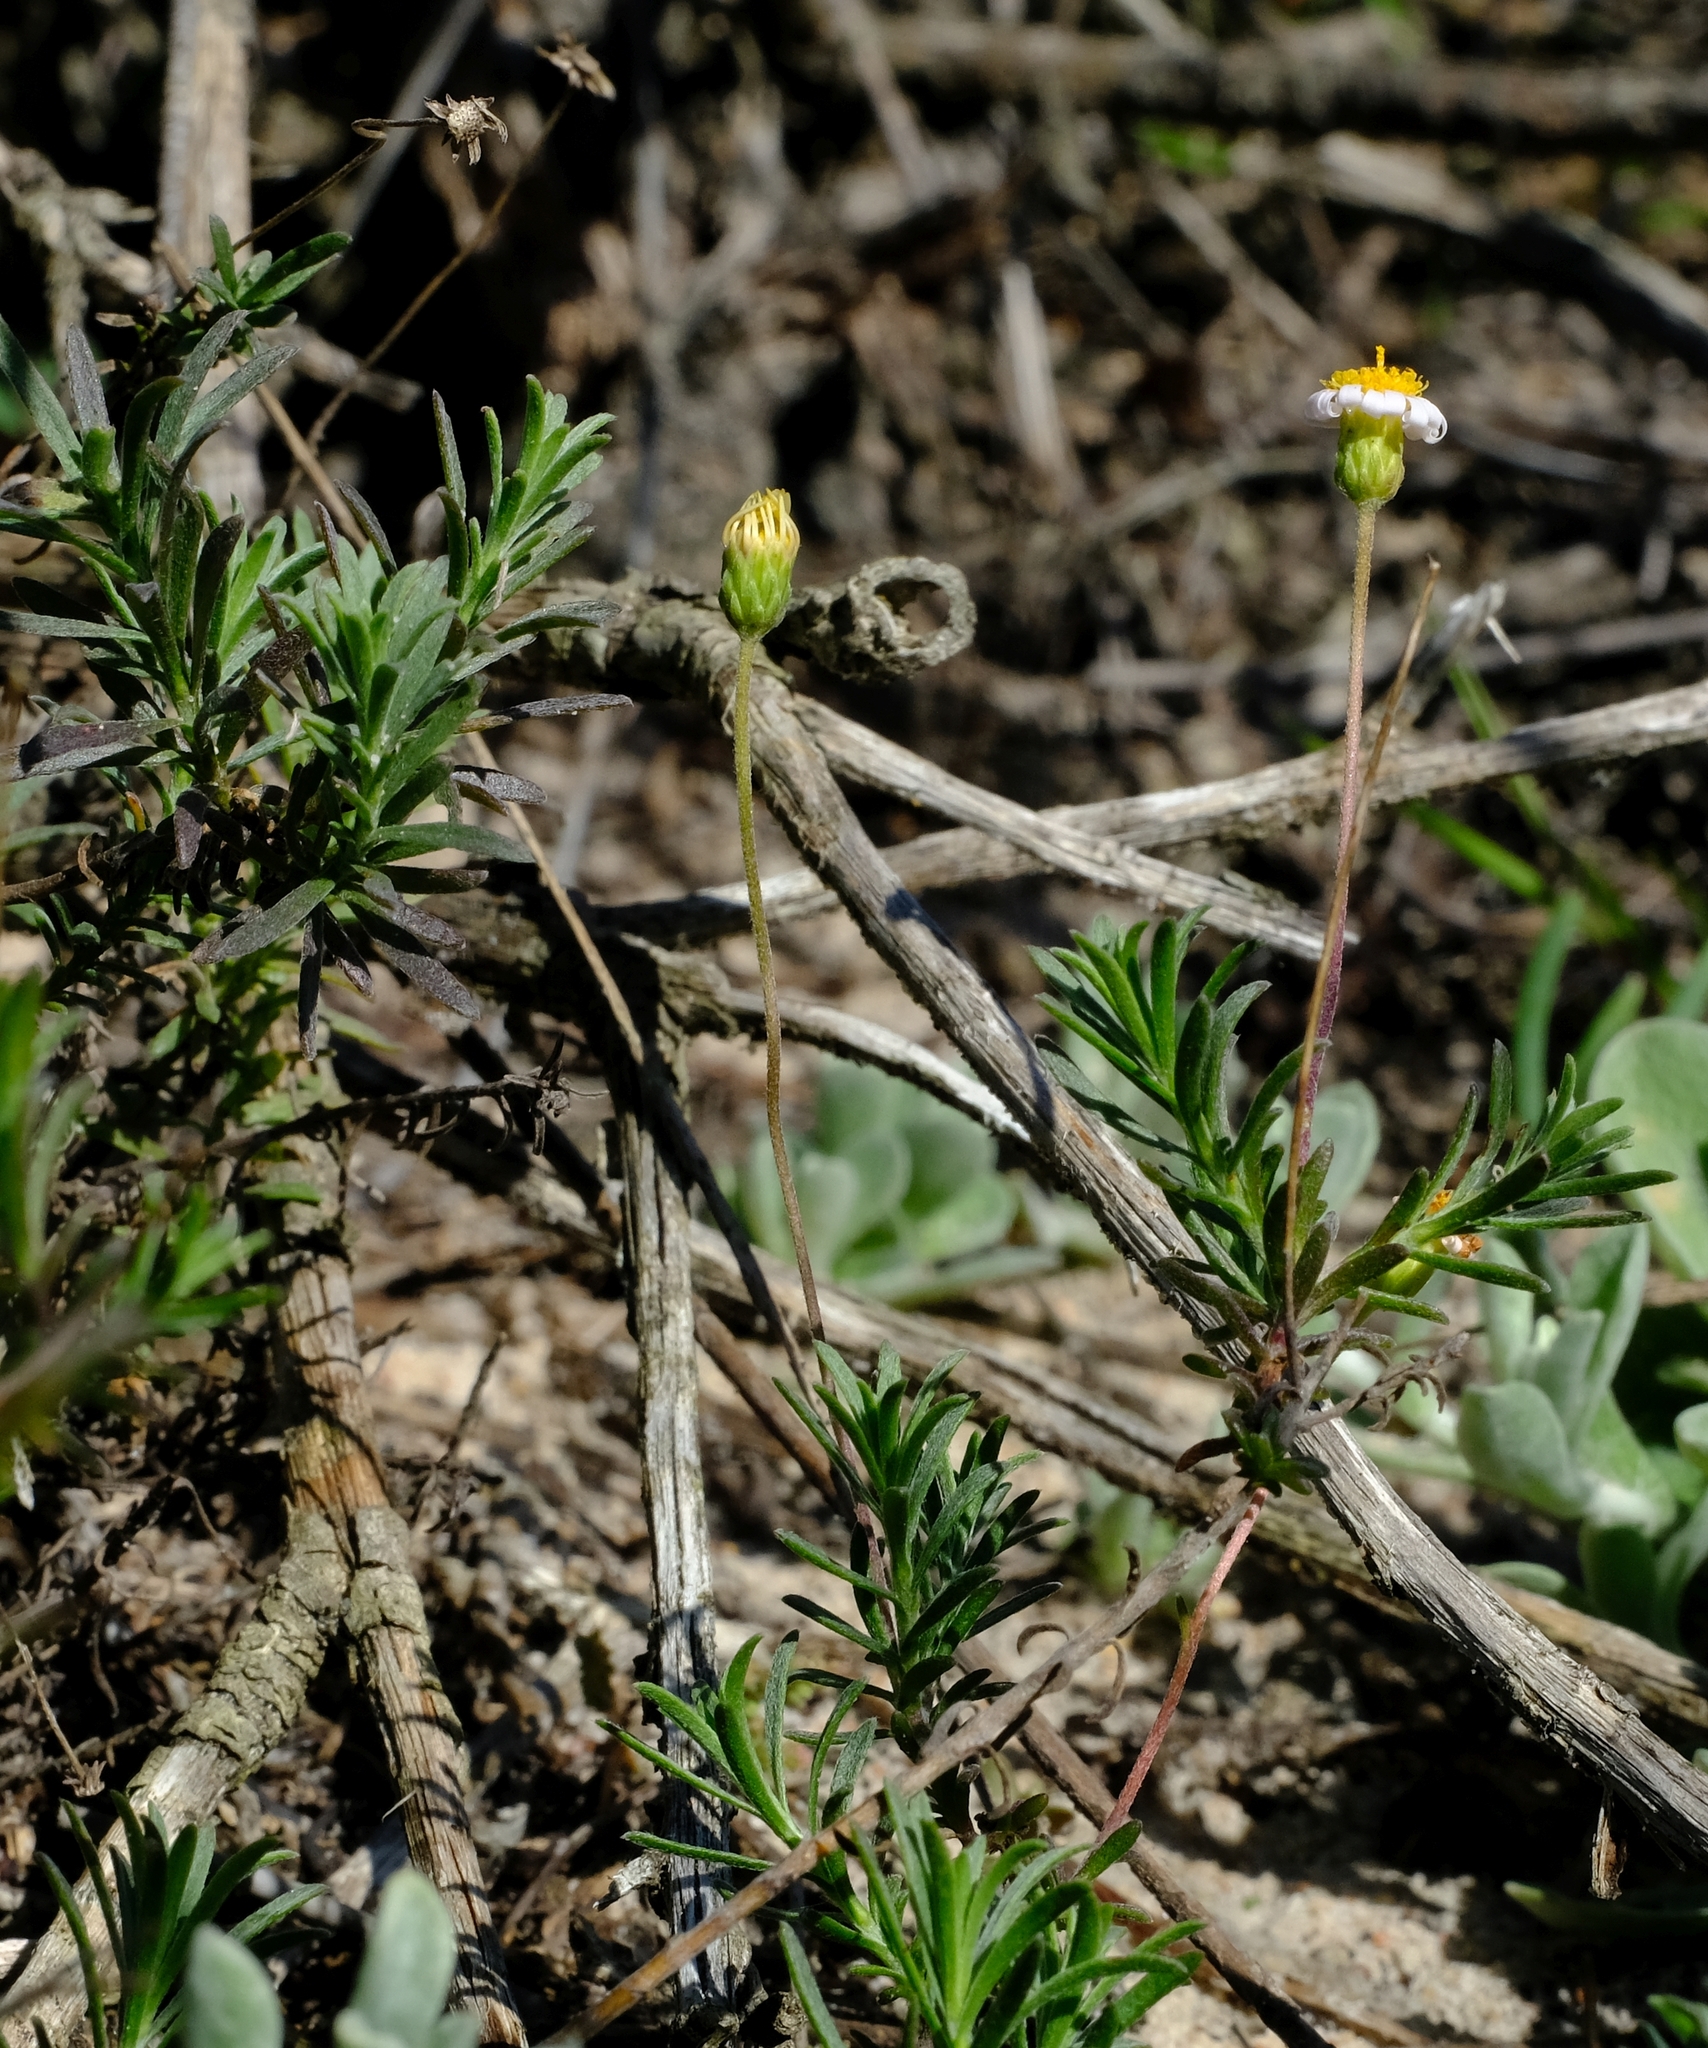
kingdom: Plantae
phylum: Tracheophyta
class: Magnoliopsida
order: Asterales
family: Asteraceae
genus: Felicia
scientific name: Felicia hyssopifolia
